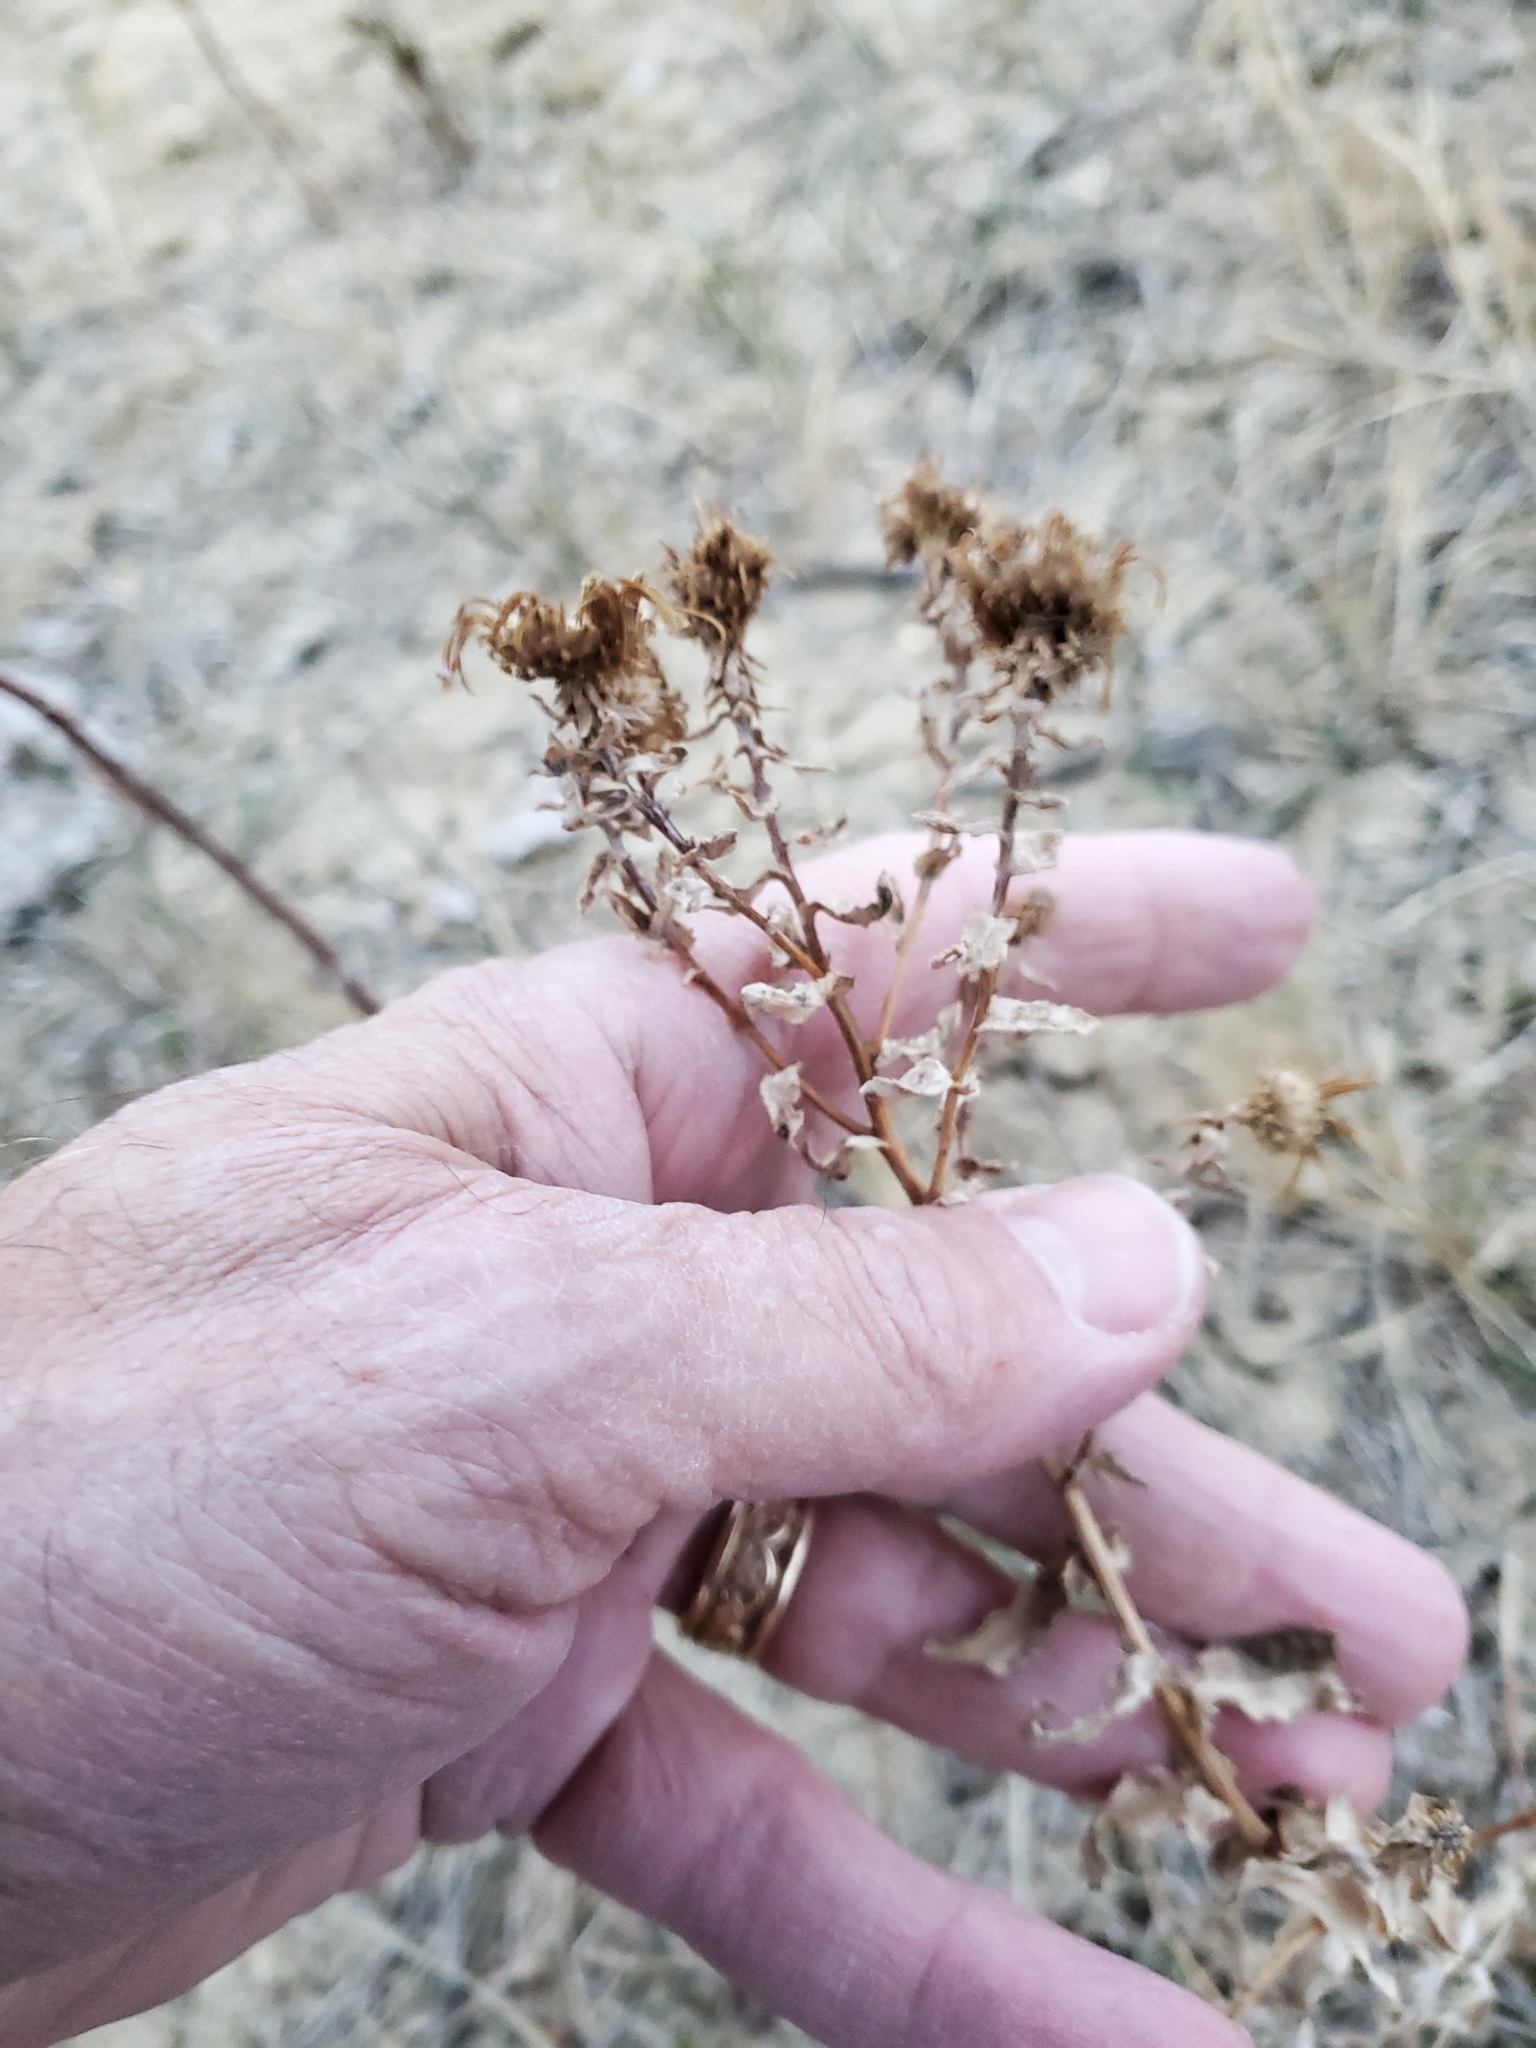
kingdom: Plantae
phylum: Tracheophyta
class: Magnoliopsida
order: Asterales
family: Asteraceae
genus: Grindelia
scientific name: Grindelia squarrosa
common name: Curly-cup gumweed
